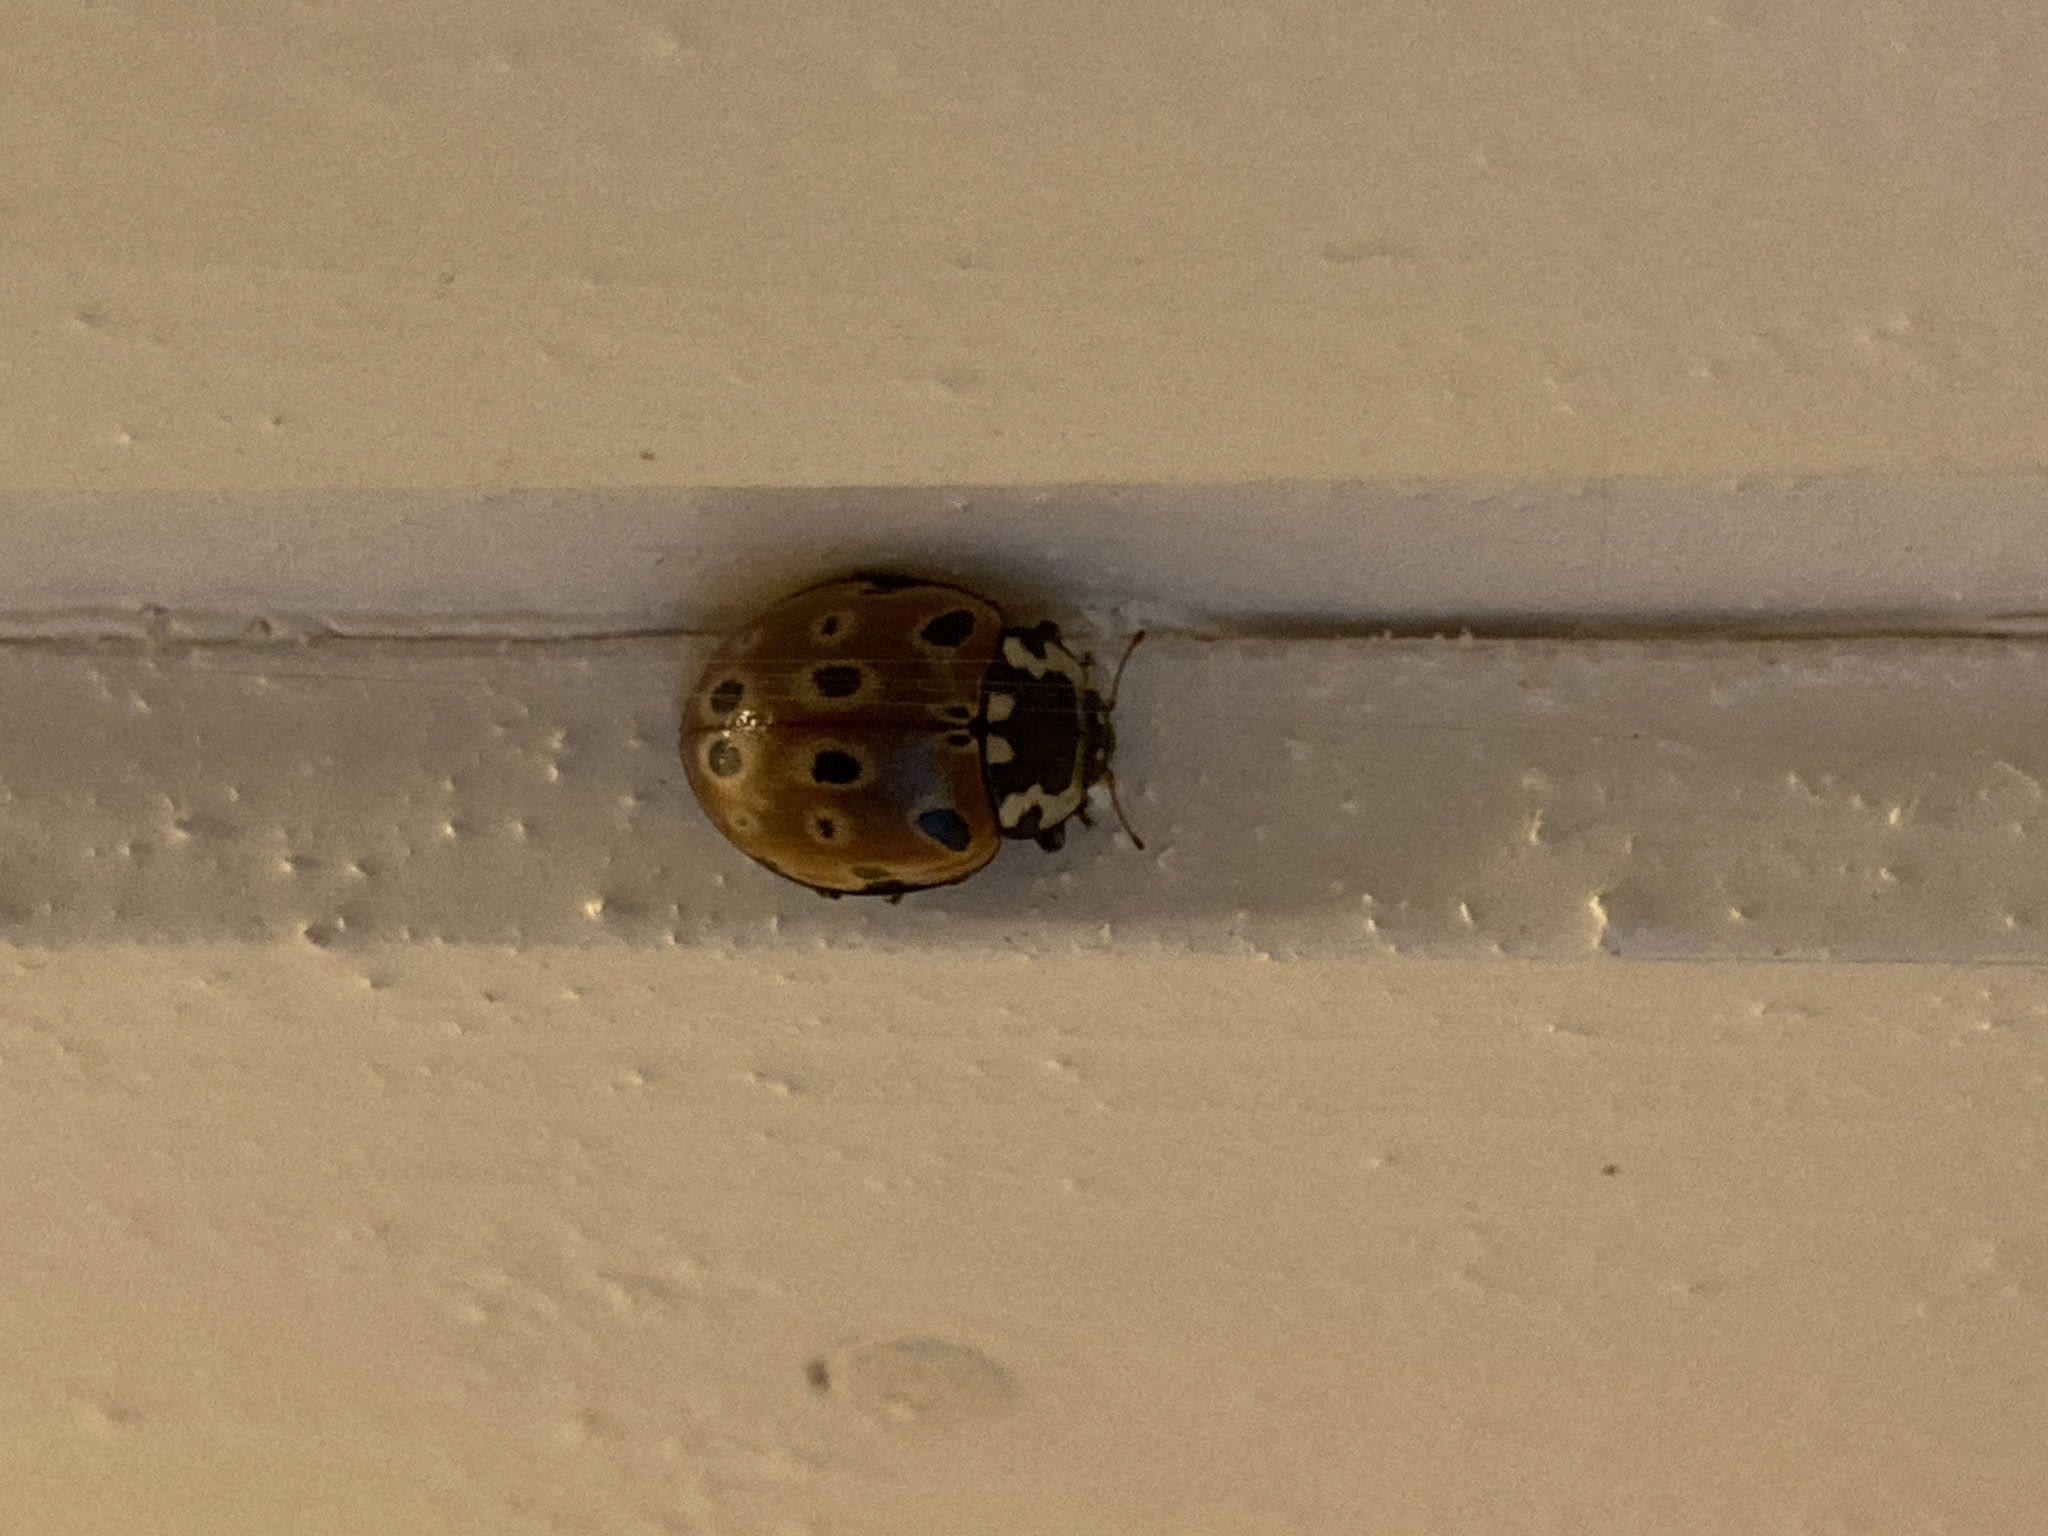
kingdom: Animalia
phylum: Arthropoda
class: Insecta
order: Coleoptera
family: Coccinellidae
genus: Anatis
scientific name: Anatis ocellata
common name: Eyed ladybird
